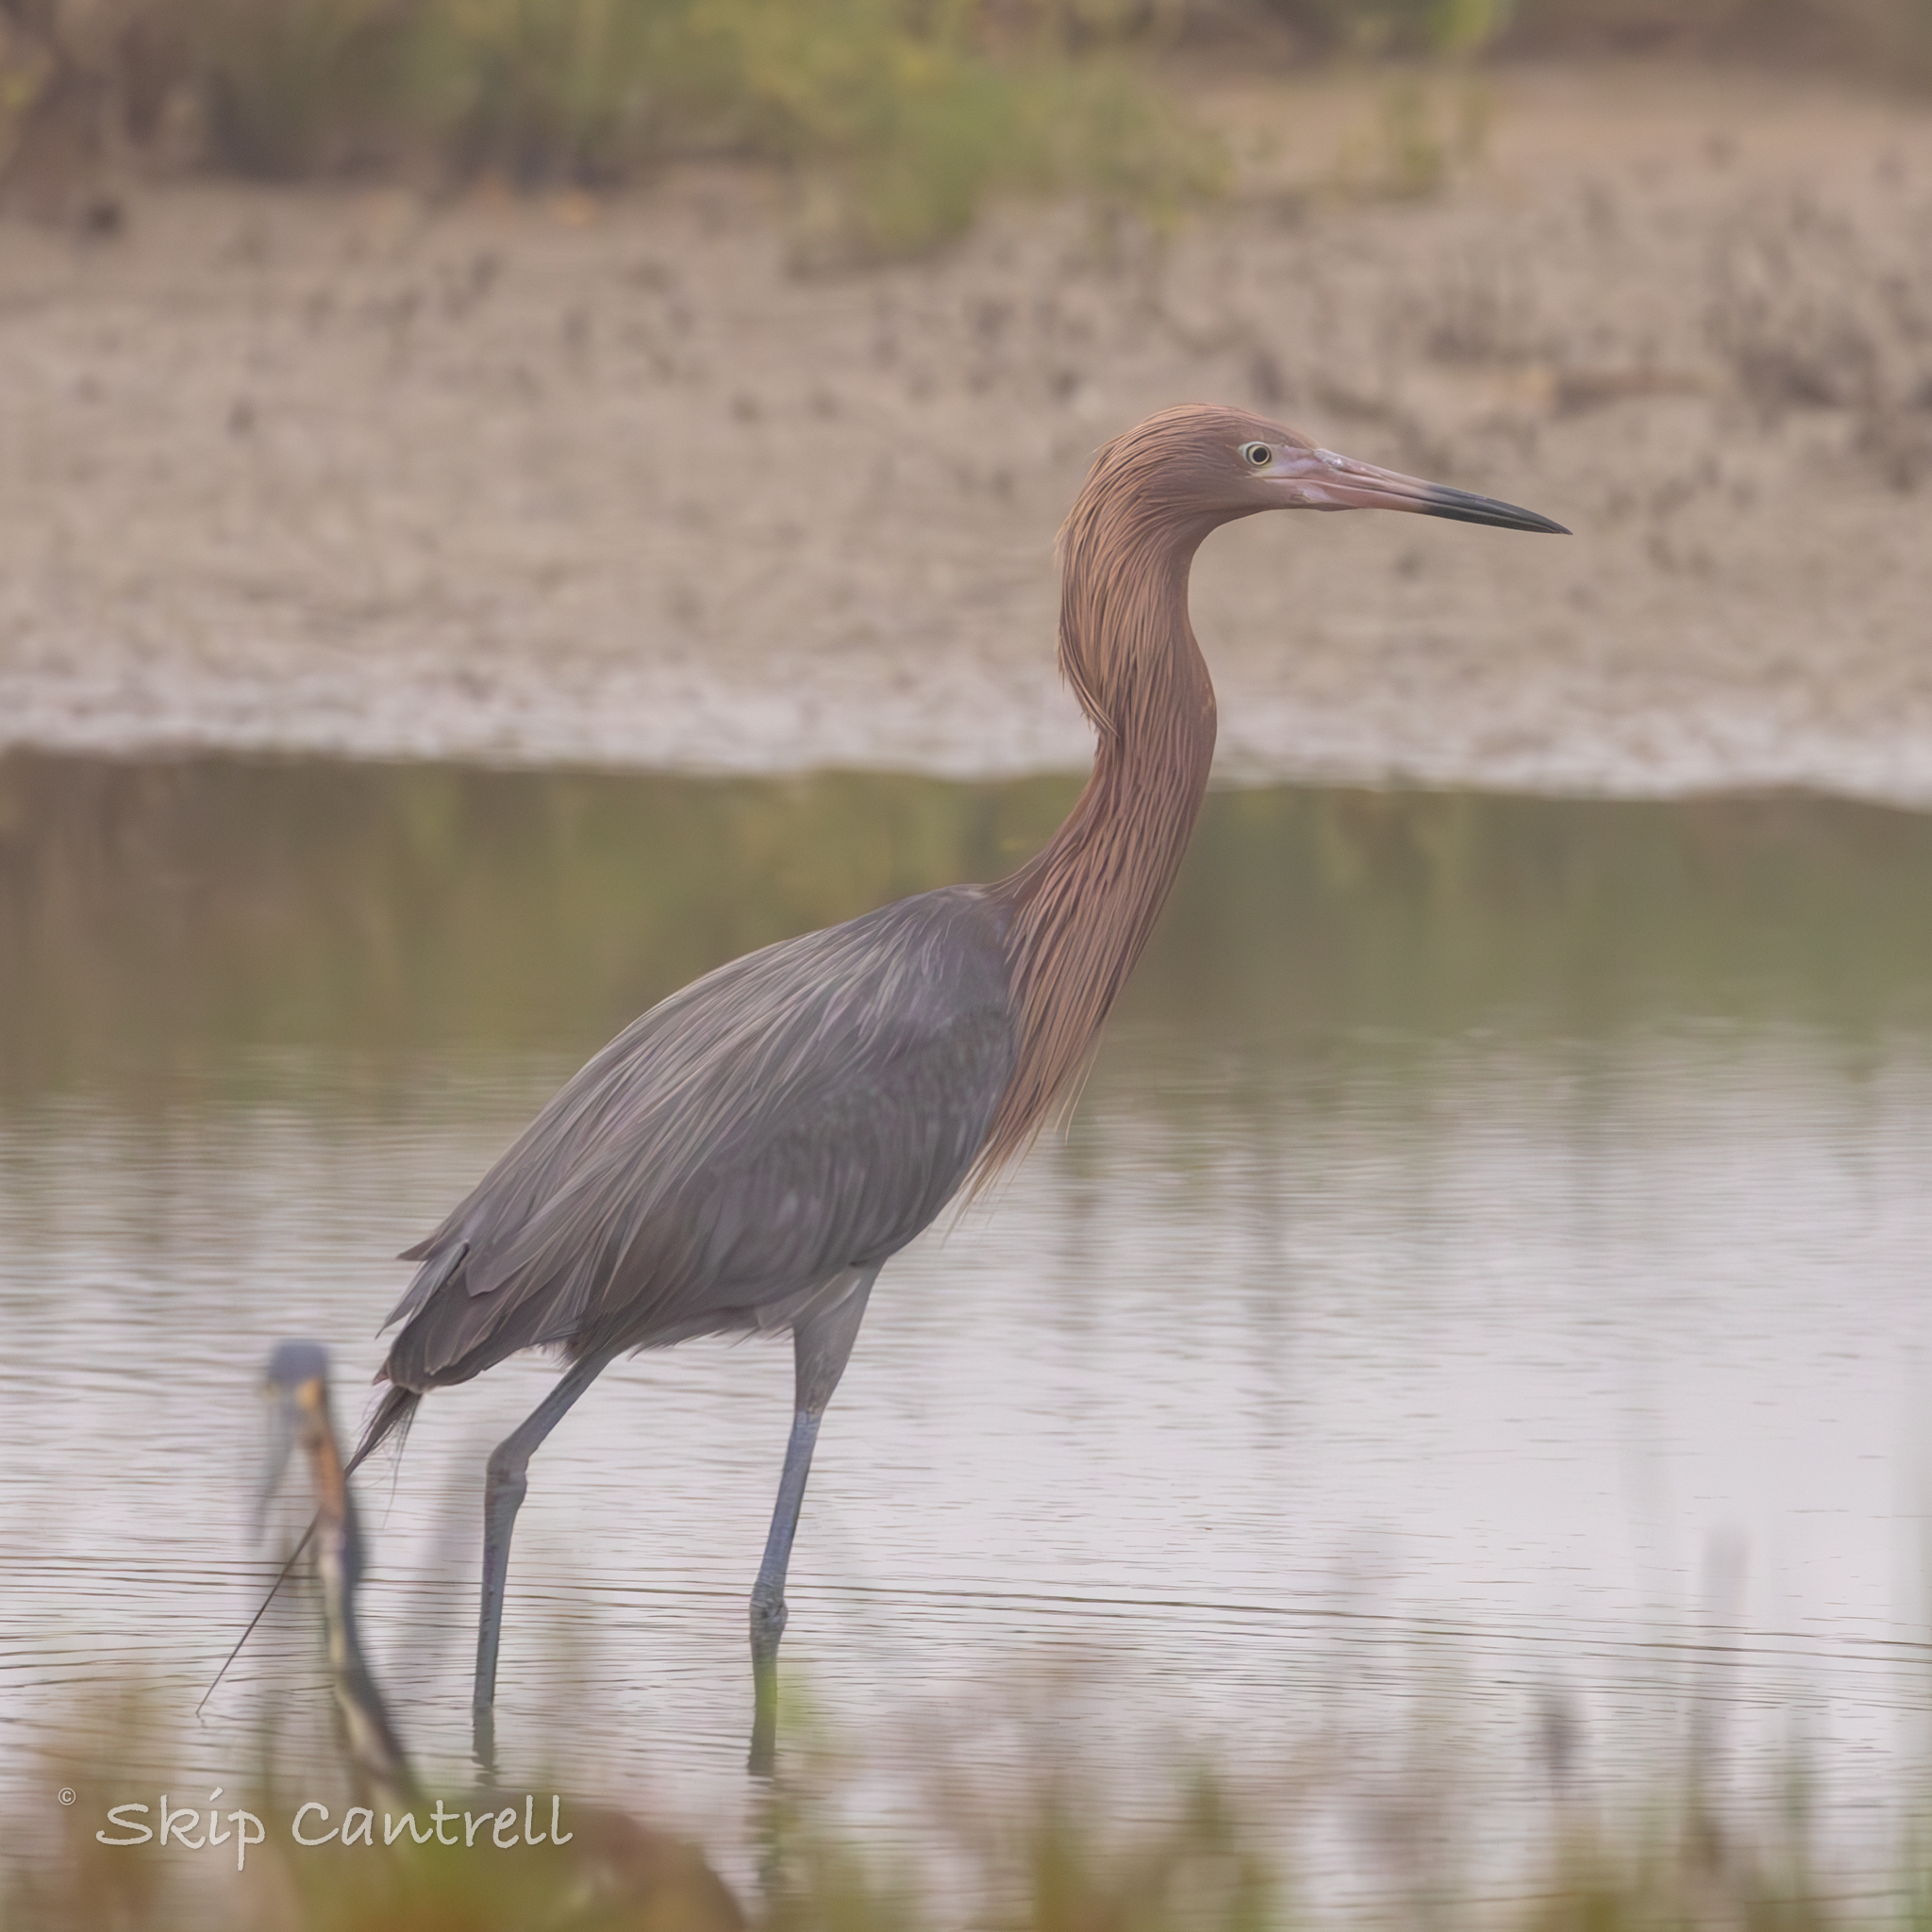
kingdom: Animalia
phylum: Chordata
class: Aves
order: Pelecaniformes
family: Ardeidae
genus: Egretta
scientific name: Egretta rufescens
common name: Reddish egret
